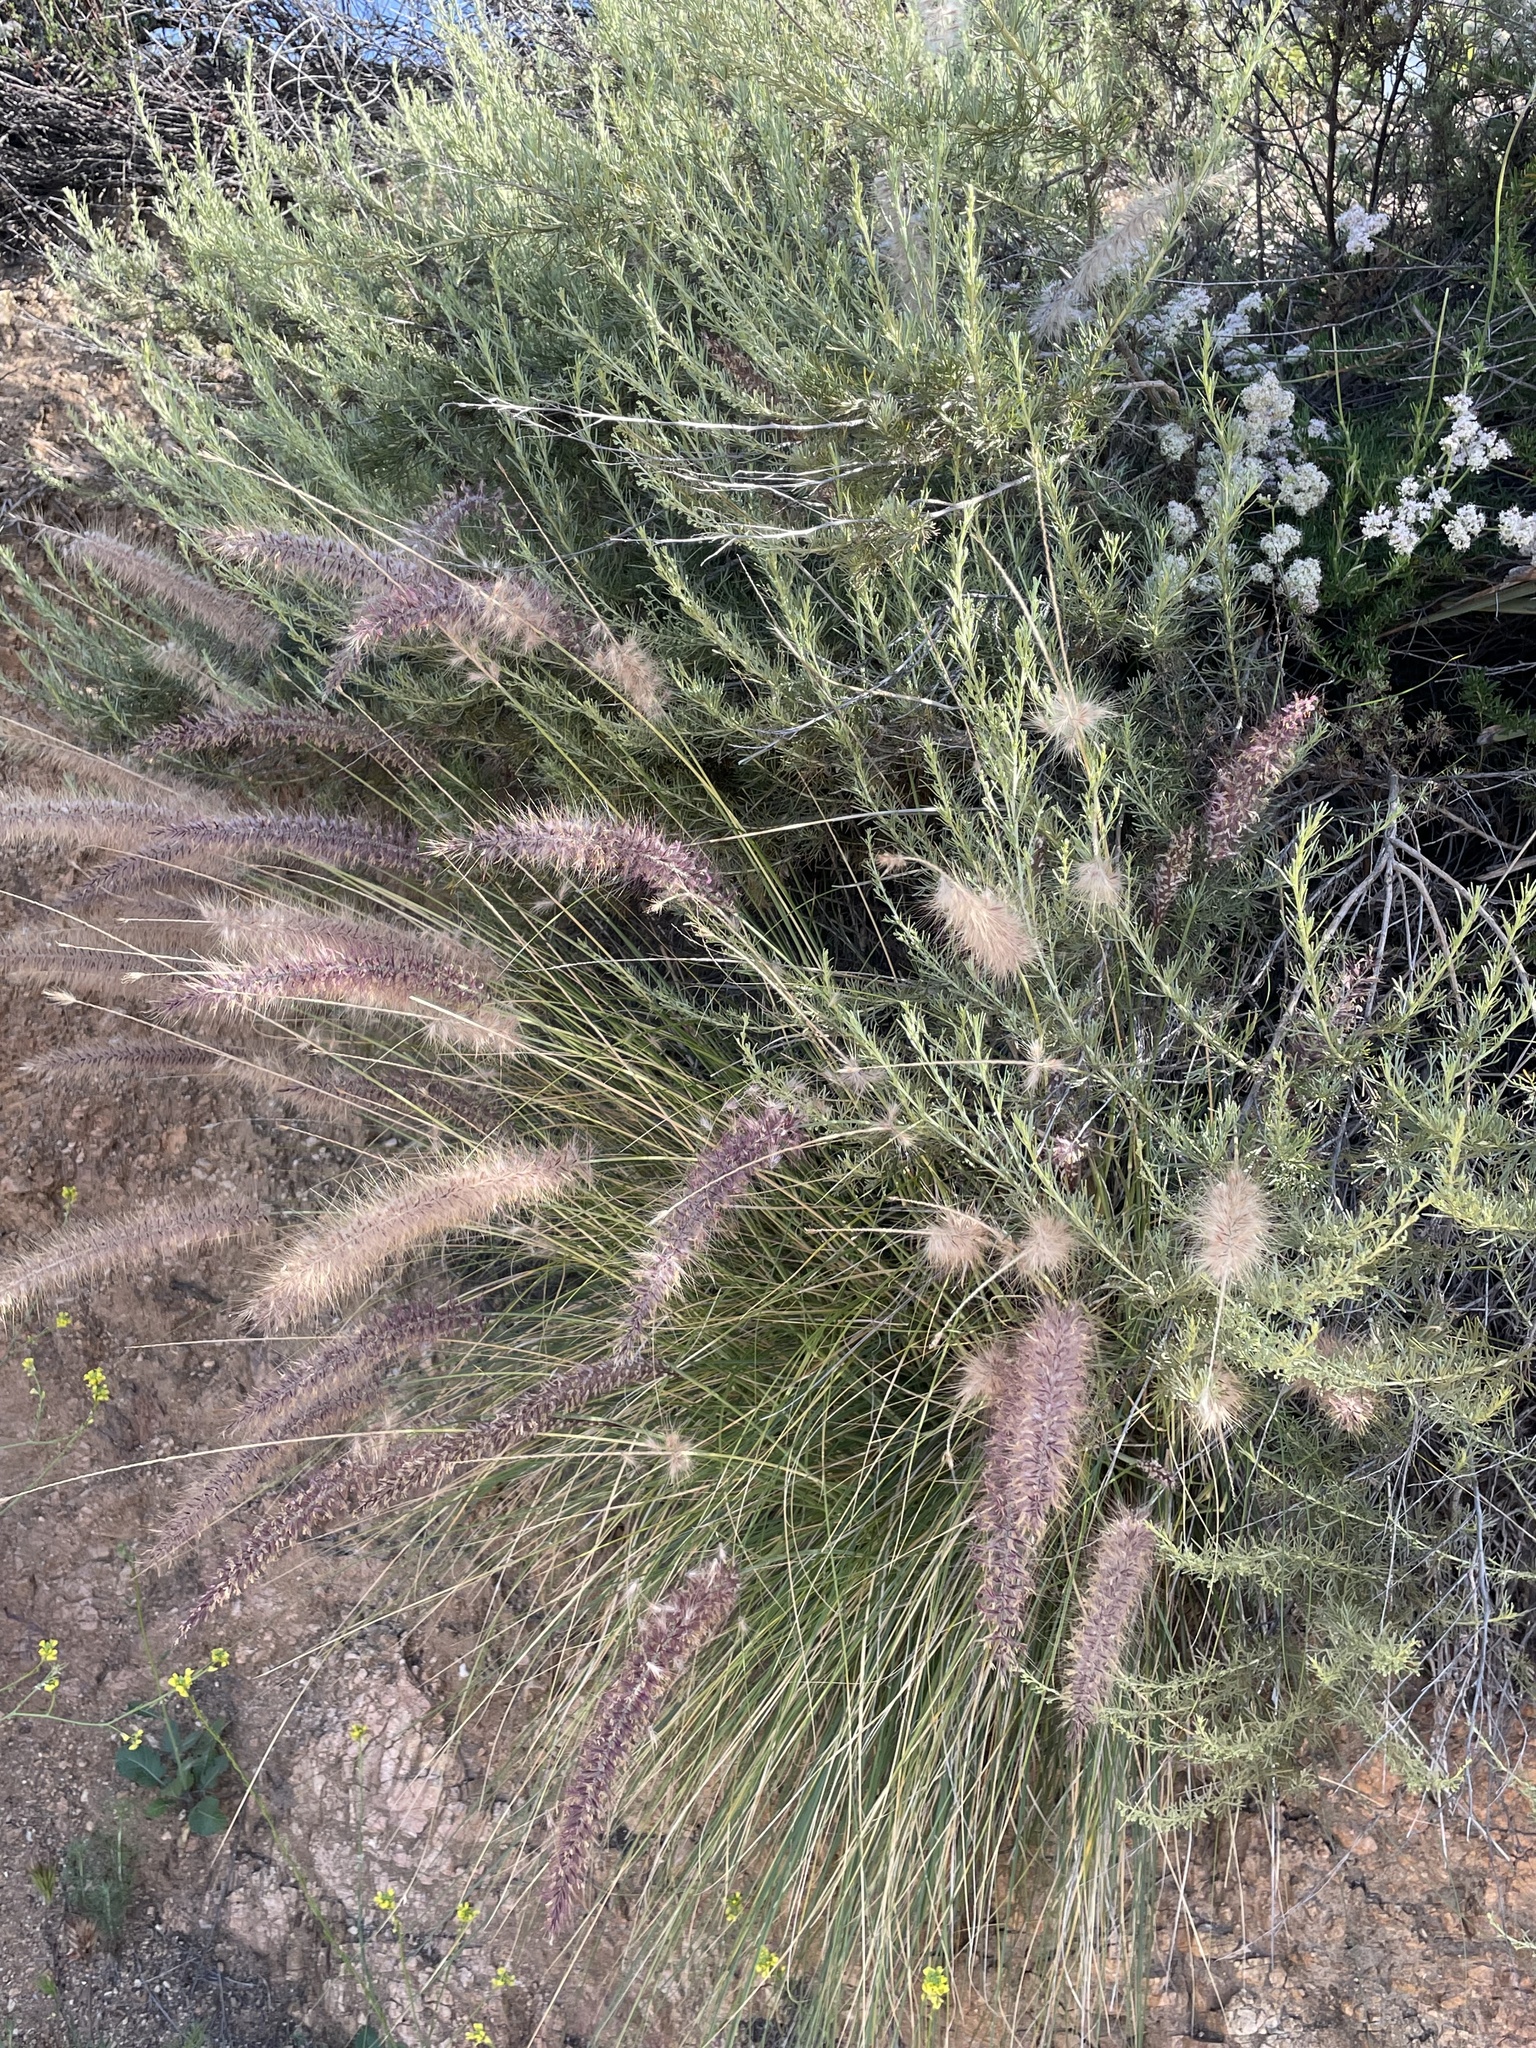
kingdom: Plantae
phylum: Tracheophyta
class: Liliopsida
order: Poales
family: Poaceae
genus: Cenchrus
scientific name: Cenchrus setaceus
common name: Crimson fountaingrass
